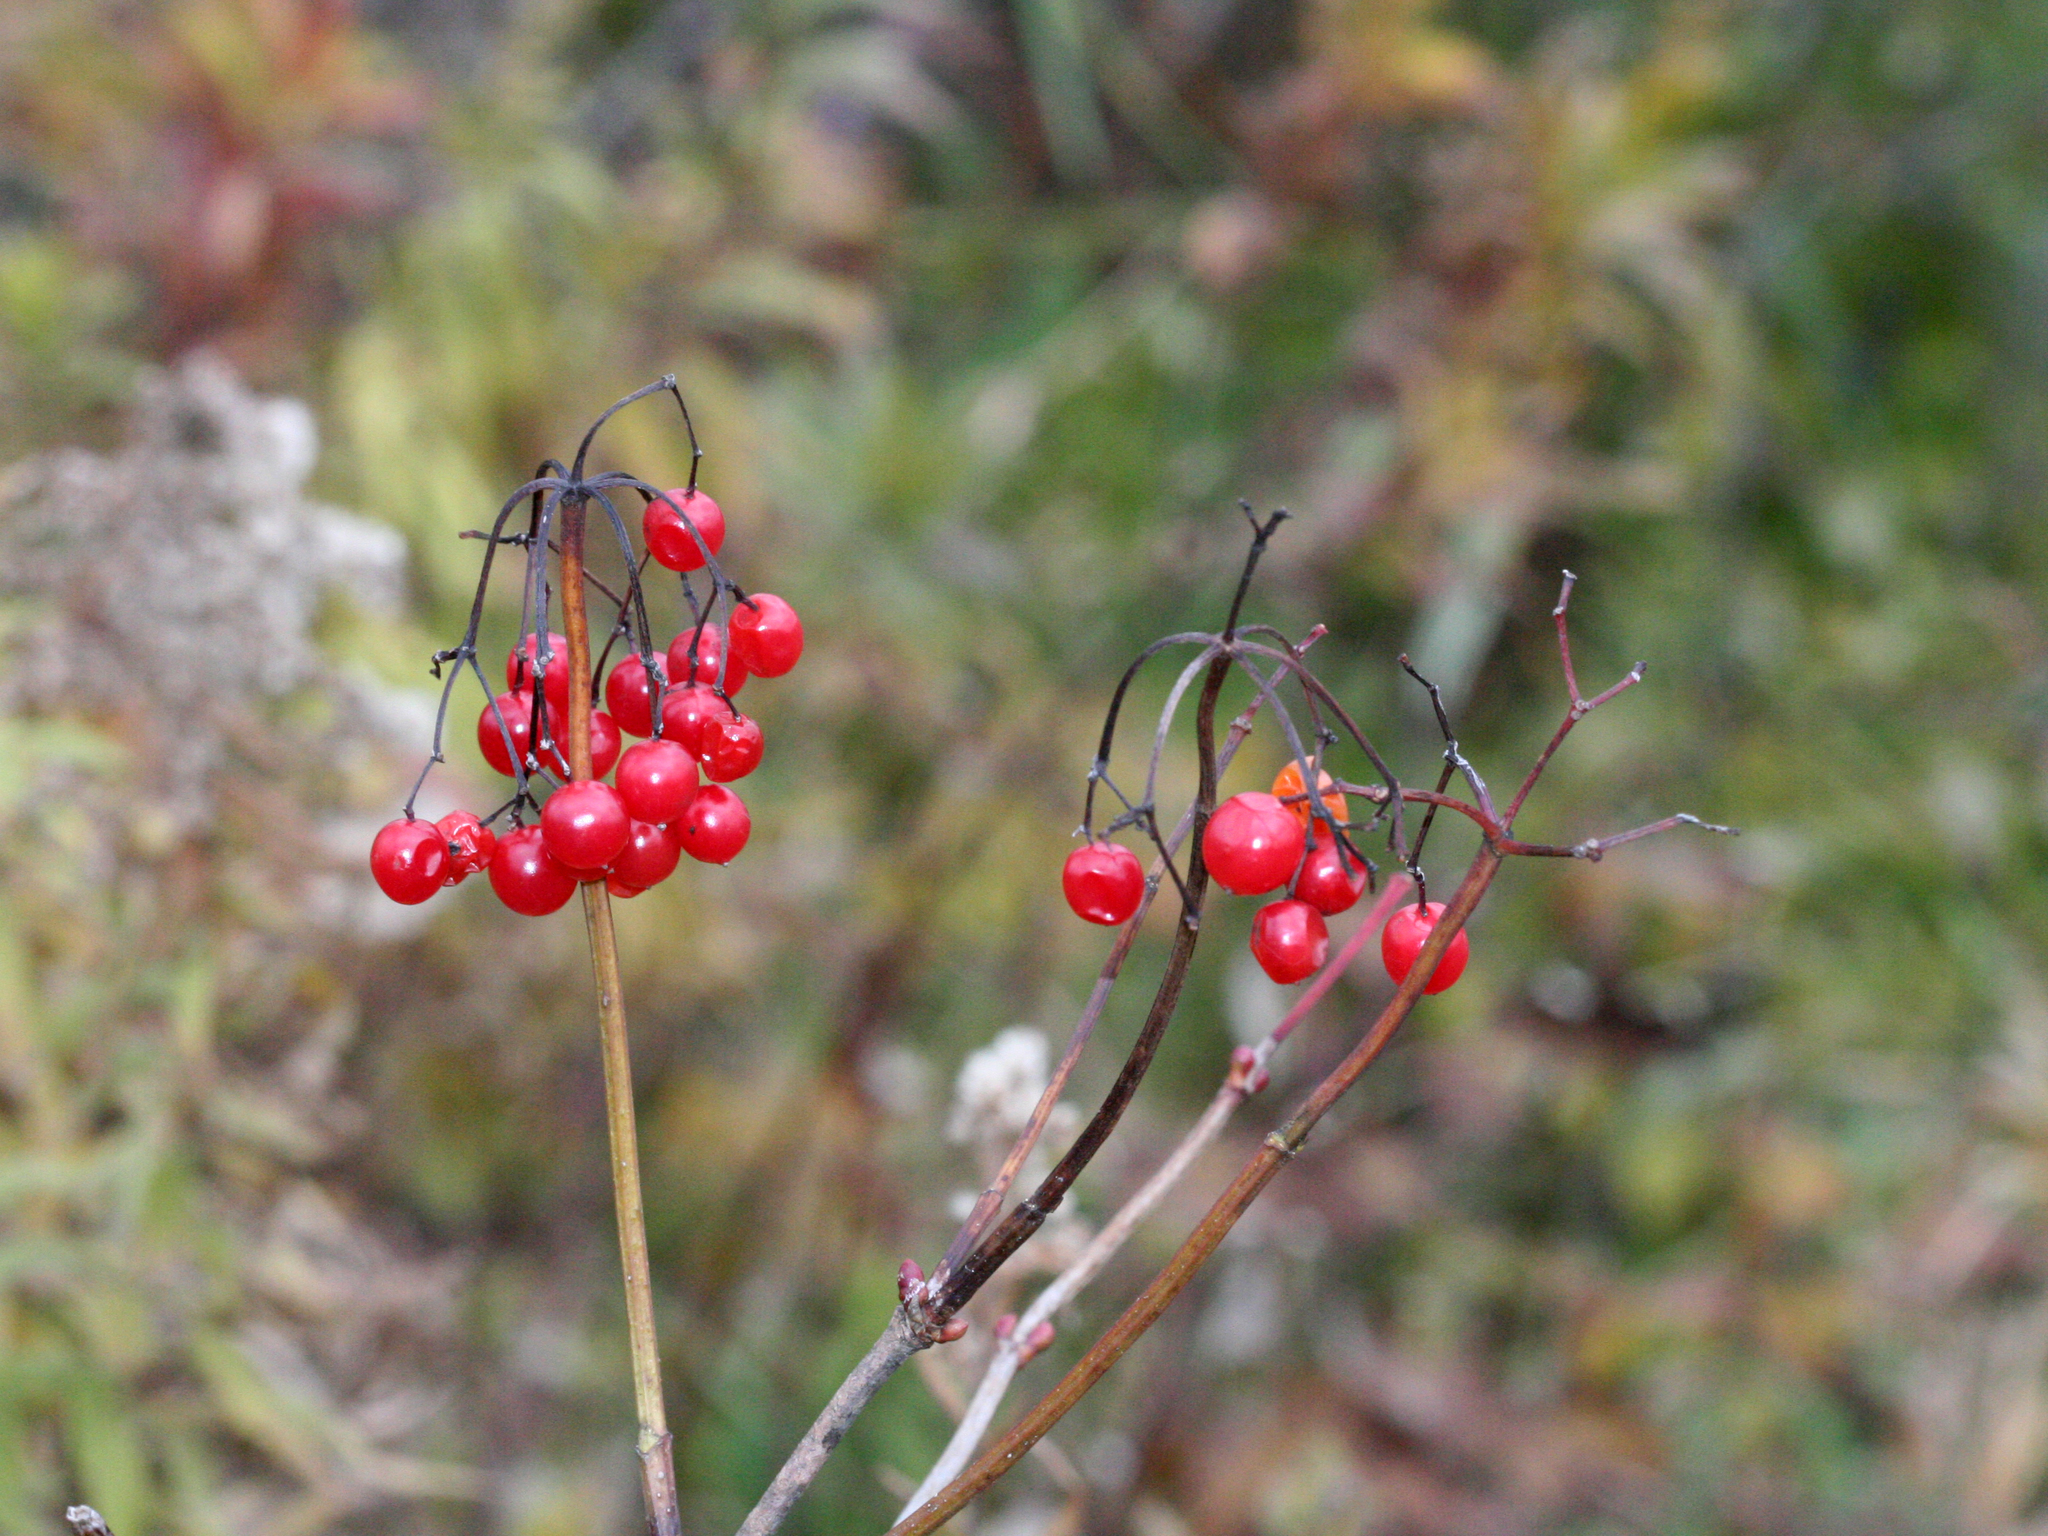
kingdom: Plantae
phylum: Tracheophyta
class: Magnoliopsida
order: Dipsacales
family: Viburnaceae
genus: Viburnum
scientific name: Viburnum opulus
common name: Guelder-rose
